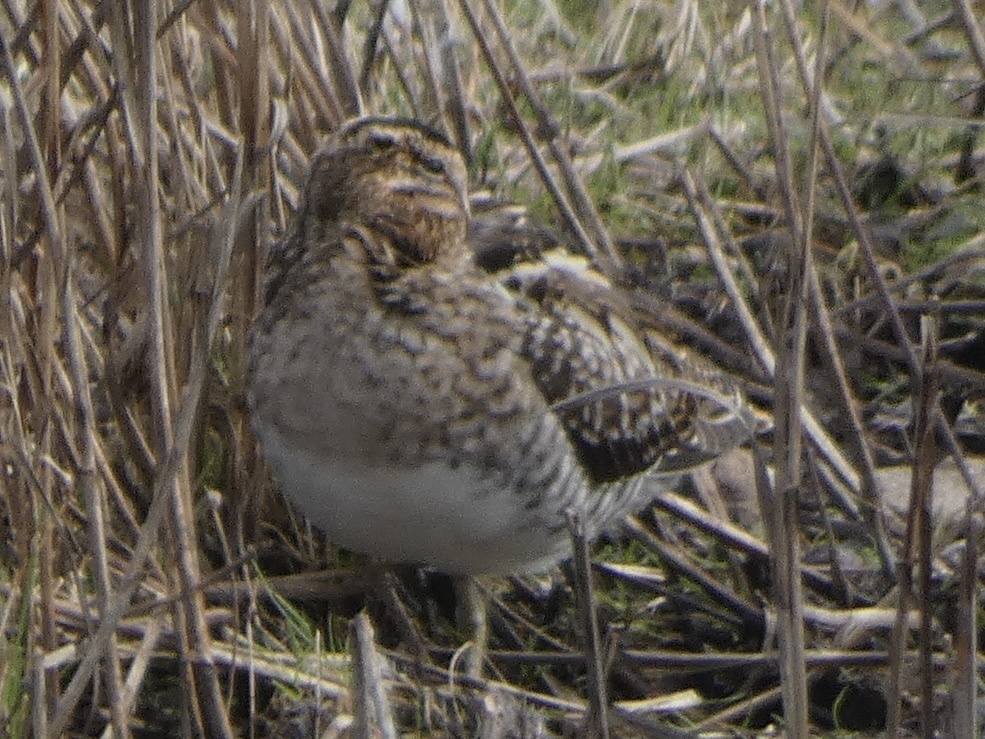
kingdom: Animalia
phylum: Chordata
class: Aves
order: Charadriiformes
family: Scolopacidae
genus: Gallinago
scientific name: Gallinago gallinago
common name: Common snipe
